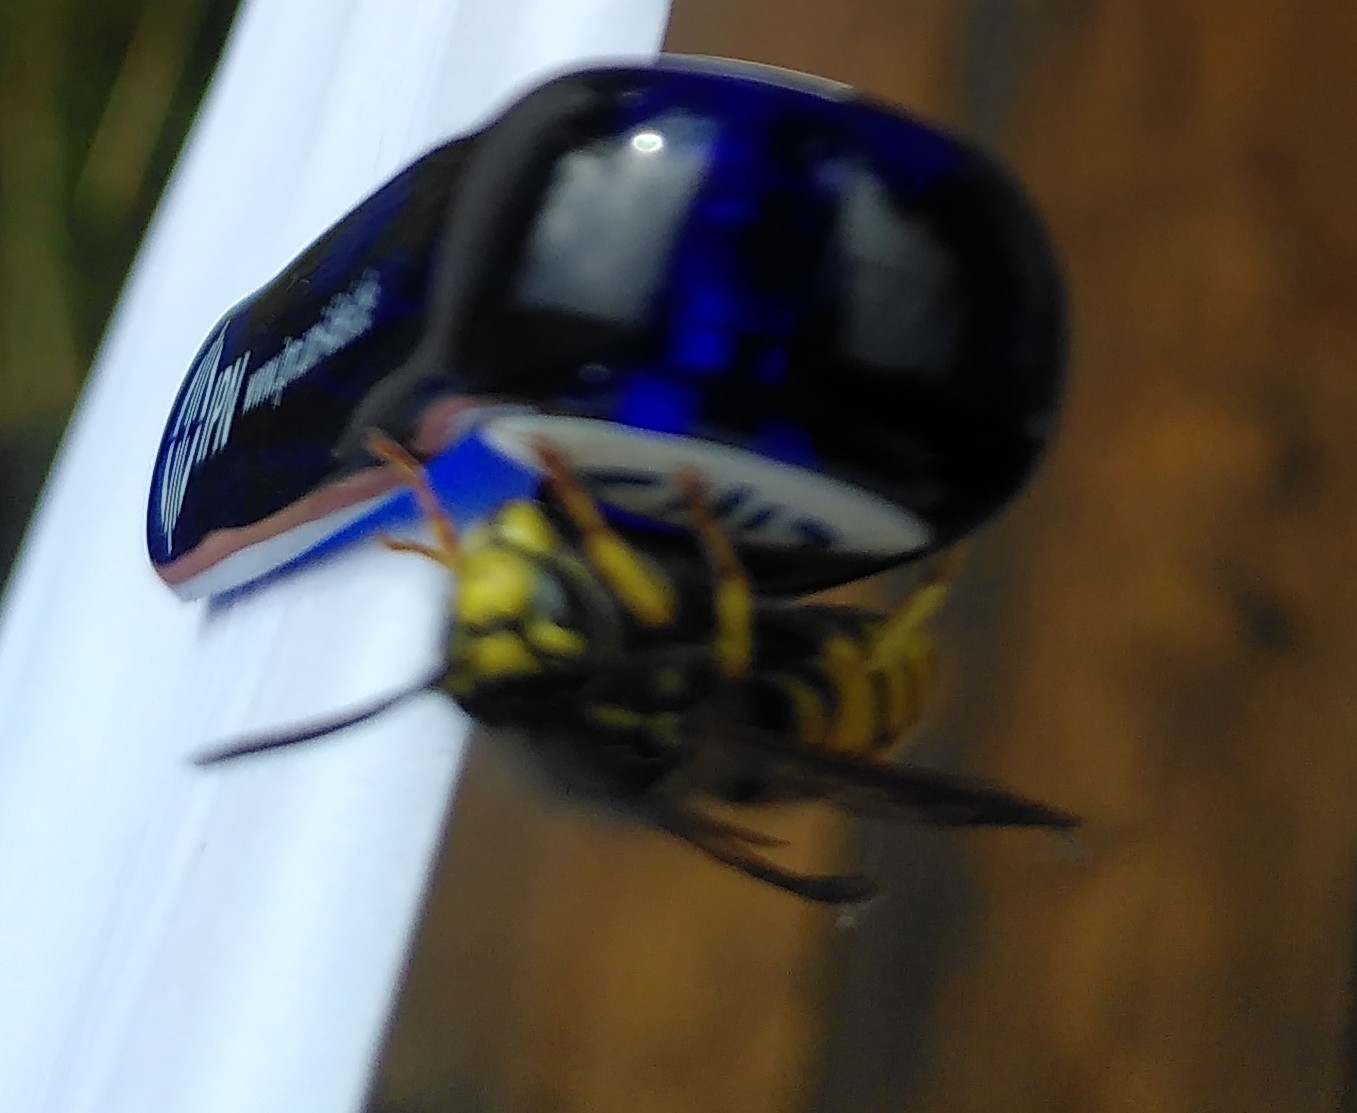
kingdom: Animalia
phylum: Arthropoda
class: Insecta
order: Hymenoptera
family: Vespidae
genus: Vespula
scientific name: Vespula germanica
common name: German wasp
